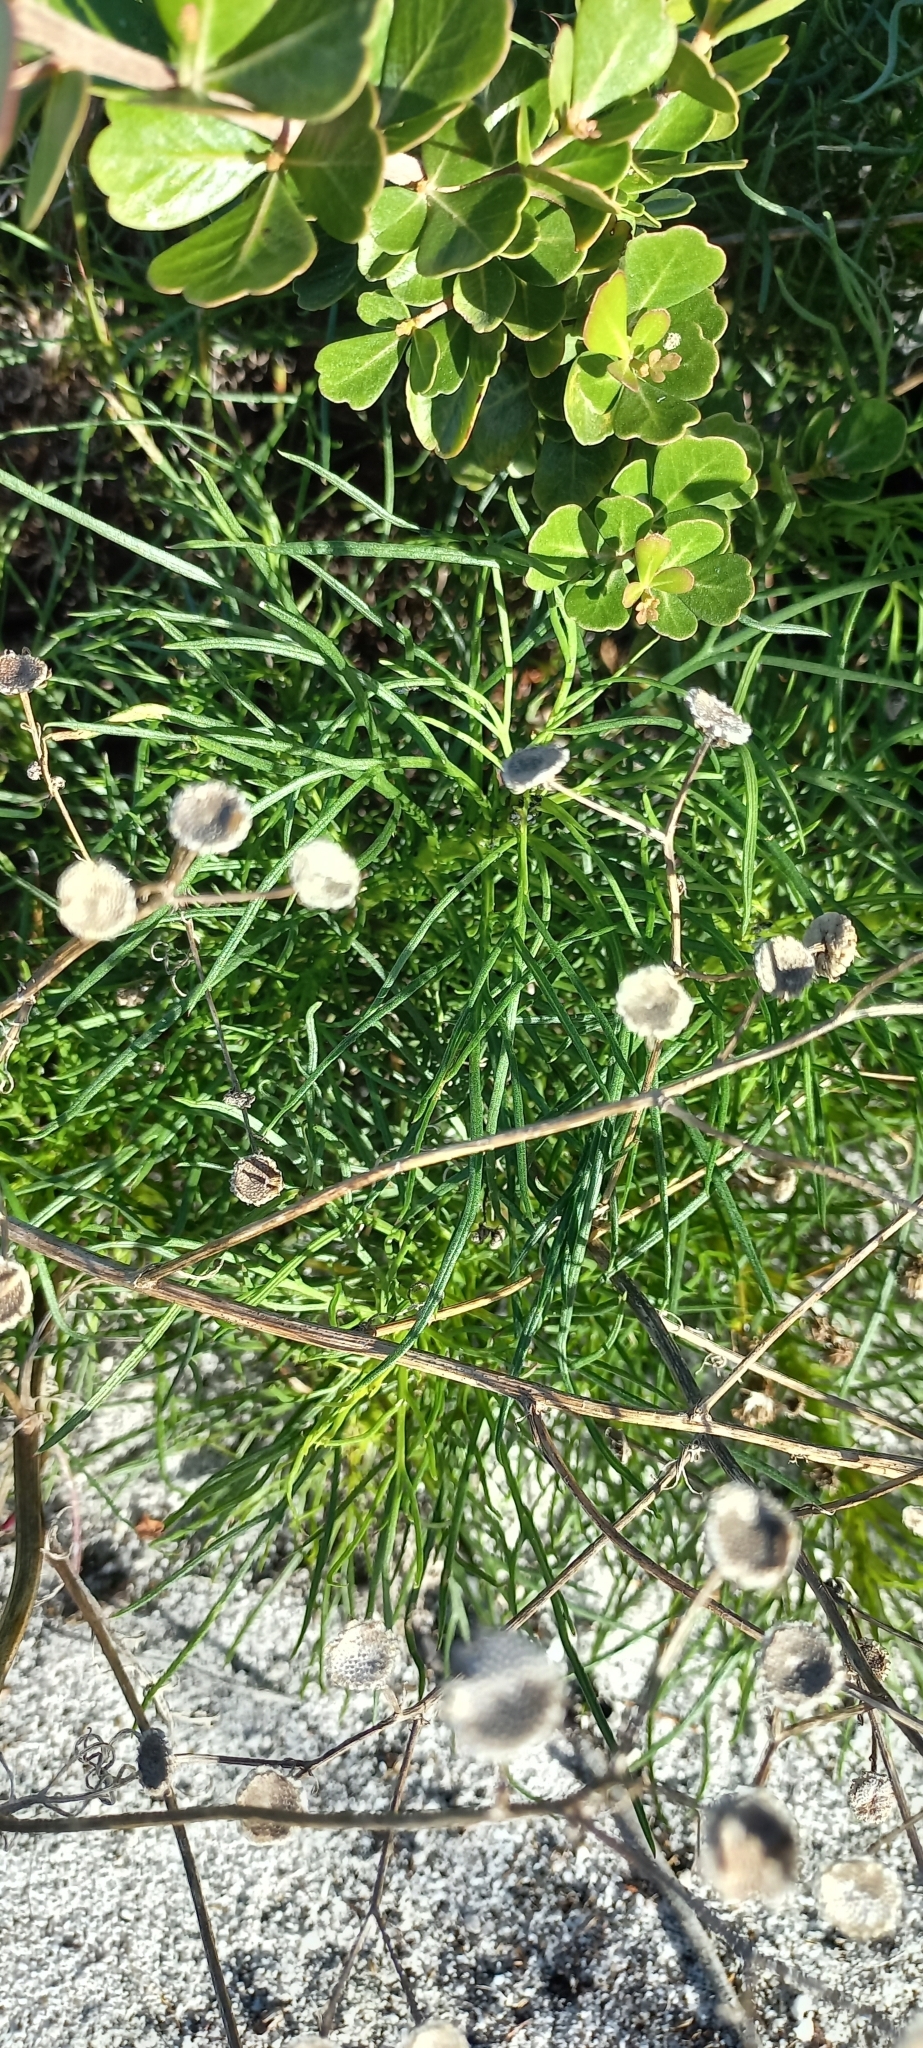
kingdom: Plantae
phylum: Tracheophyta
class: Magnoliopsida
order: Asterales
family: Asteraceae
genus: Senecio
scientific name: Senecio umbellatus
